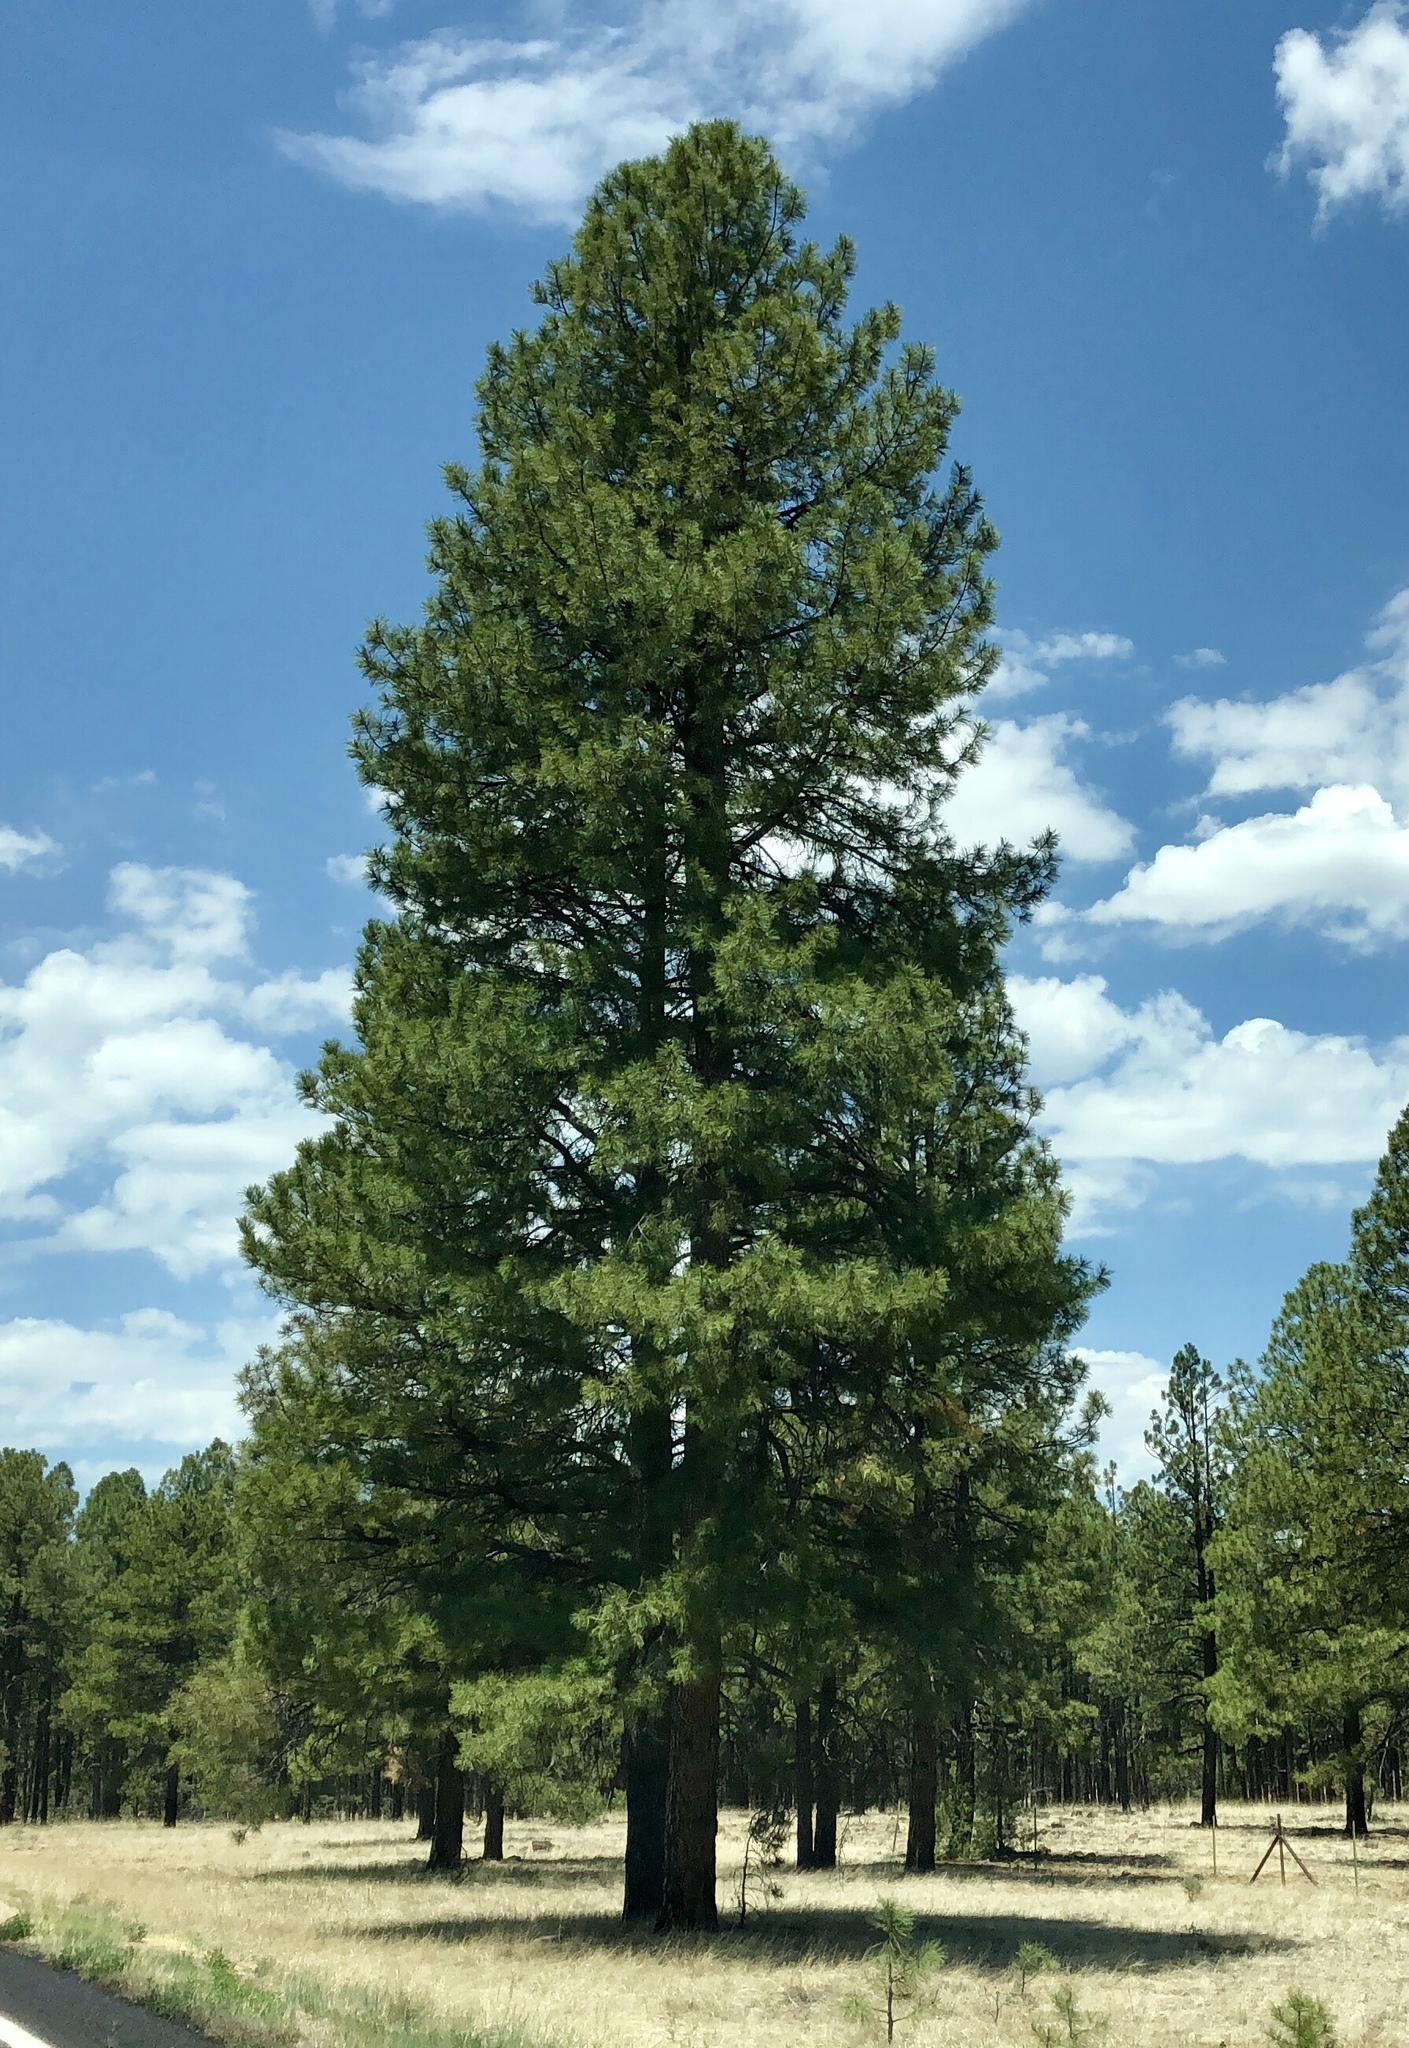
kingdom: Plantae
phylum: Tracheophyta
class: Pinopsida
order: Pinales
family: Pinaceae
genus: Pinus
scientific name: Pinus ponderosa
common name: Western yellow-pine
